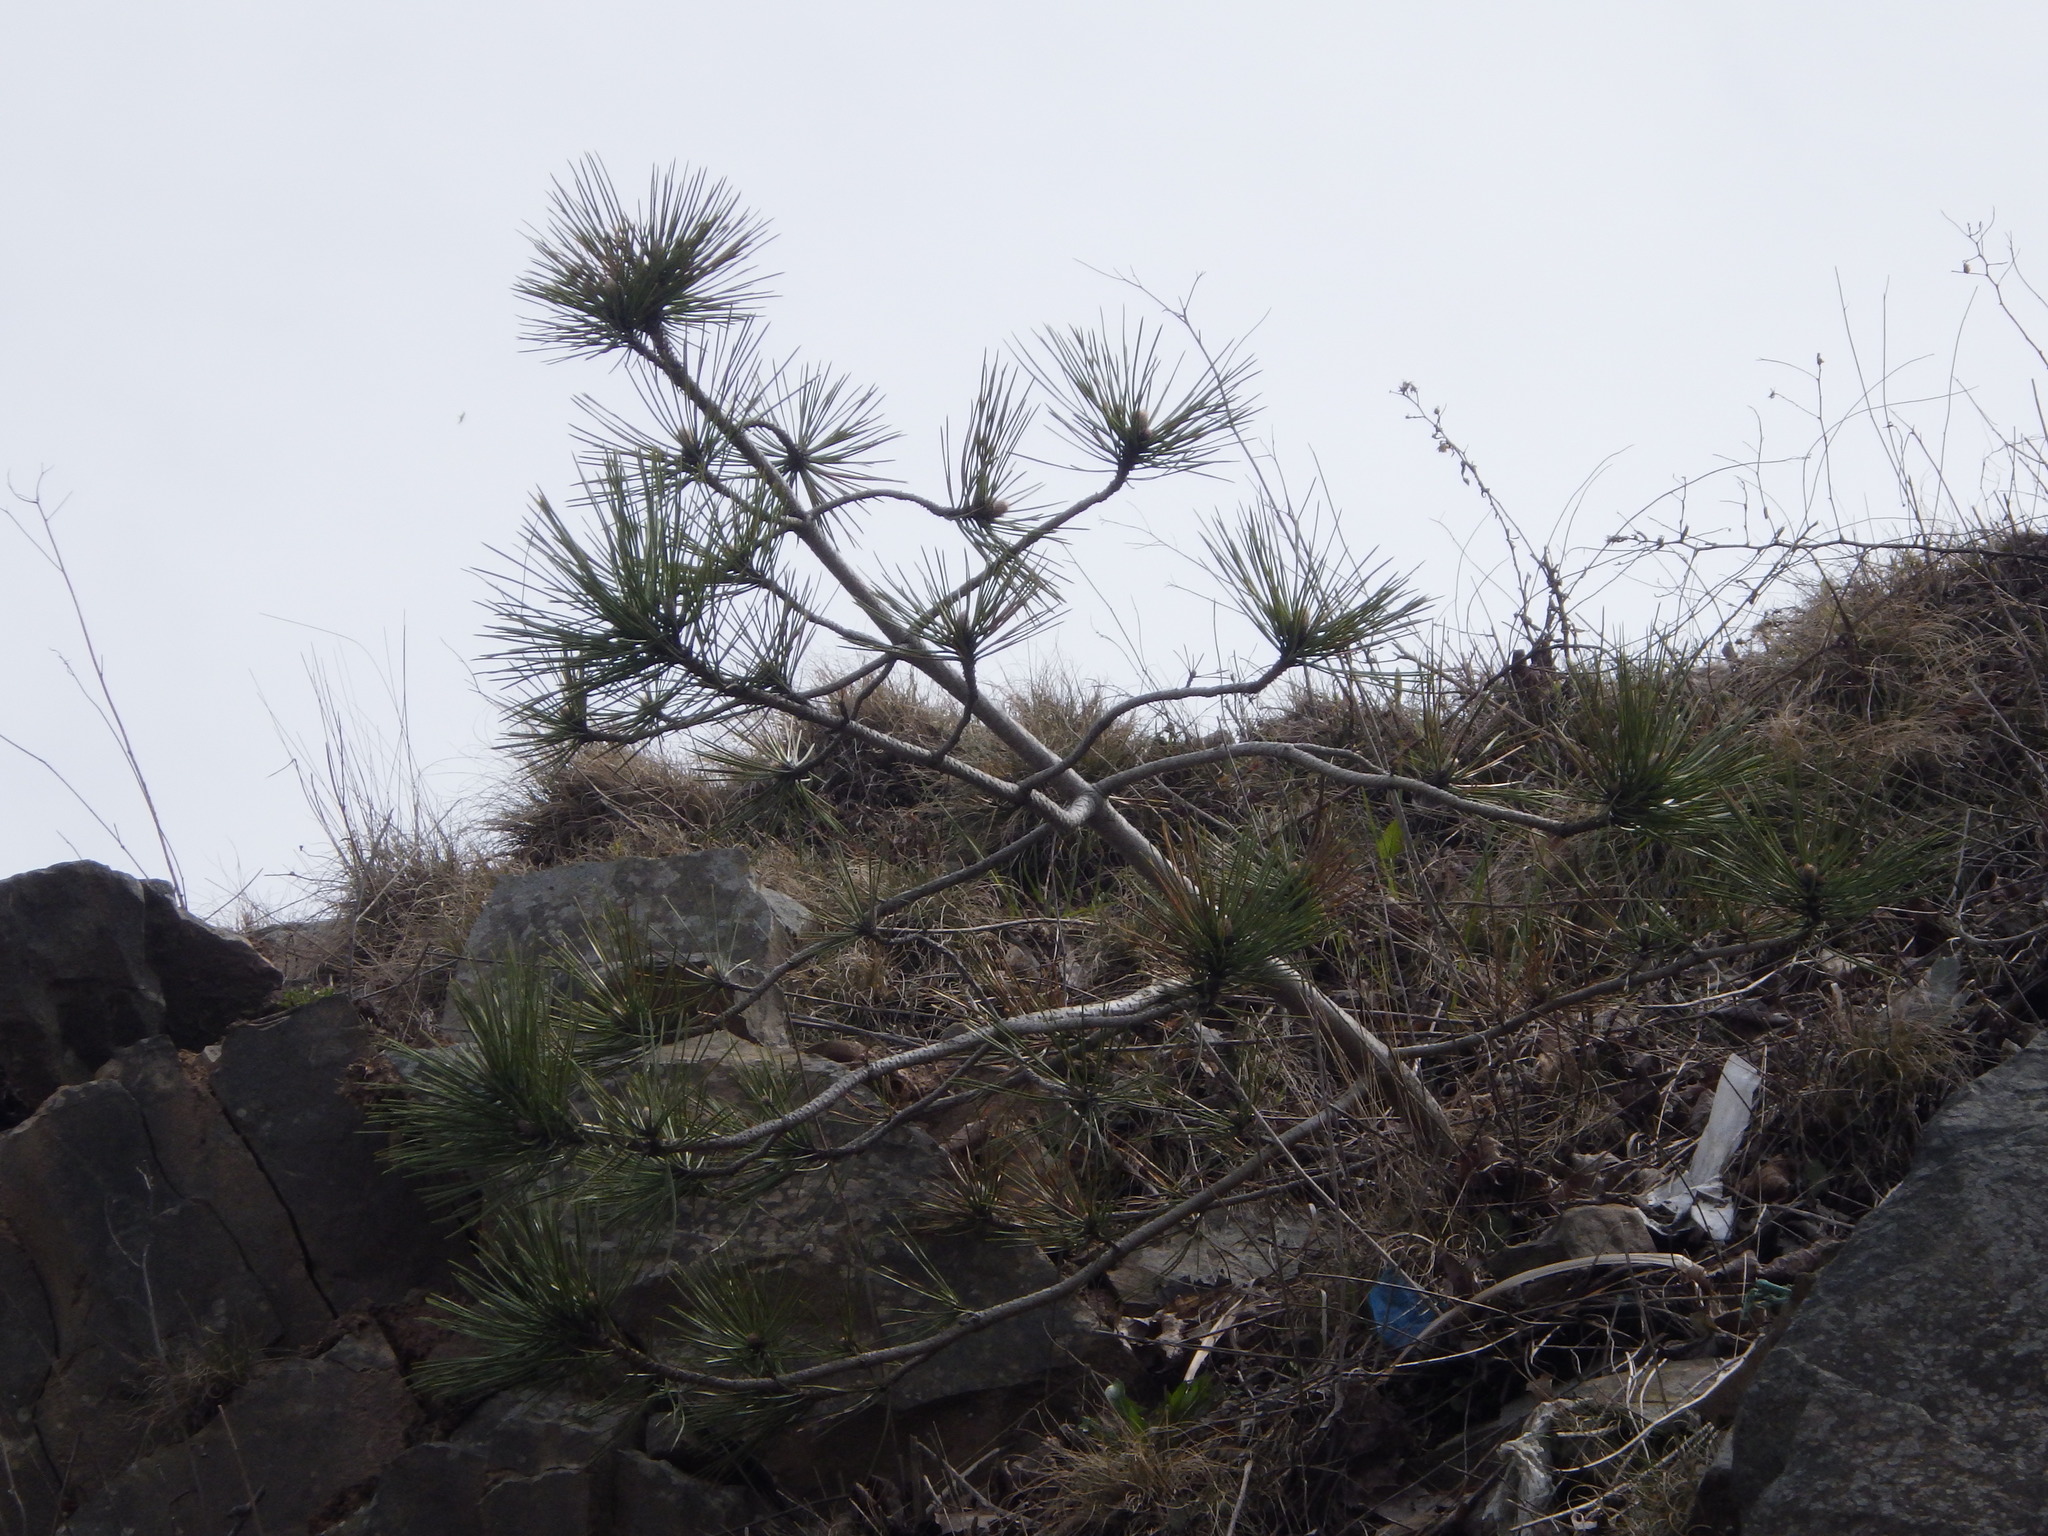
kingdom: Plantae
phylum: Tracheophyta
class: Pinopsida
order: Pinales
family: Pinaceae
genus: Pinus
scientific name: Pinus resinosa
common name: Norway pine
